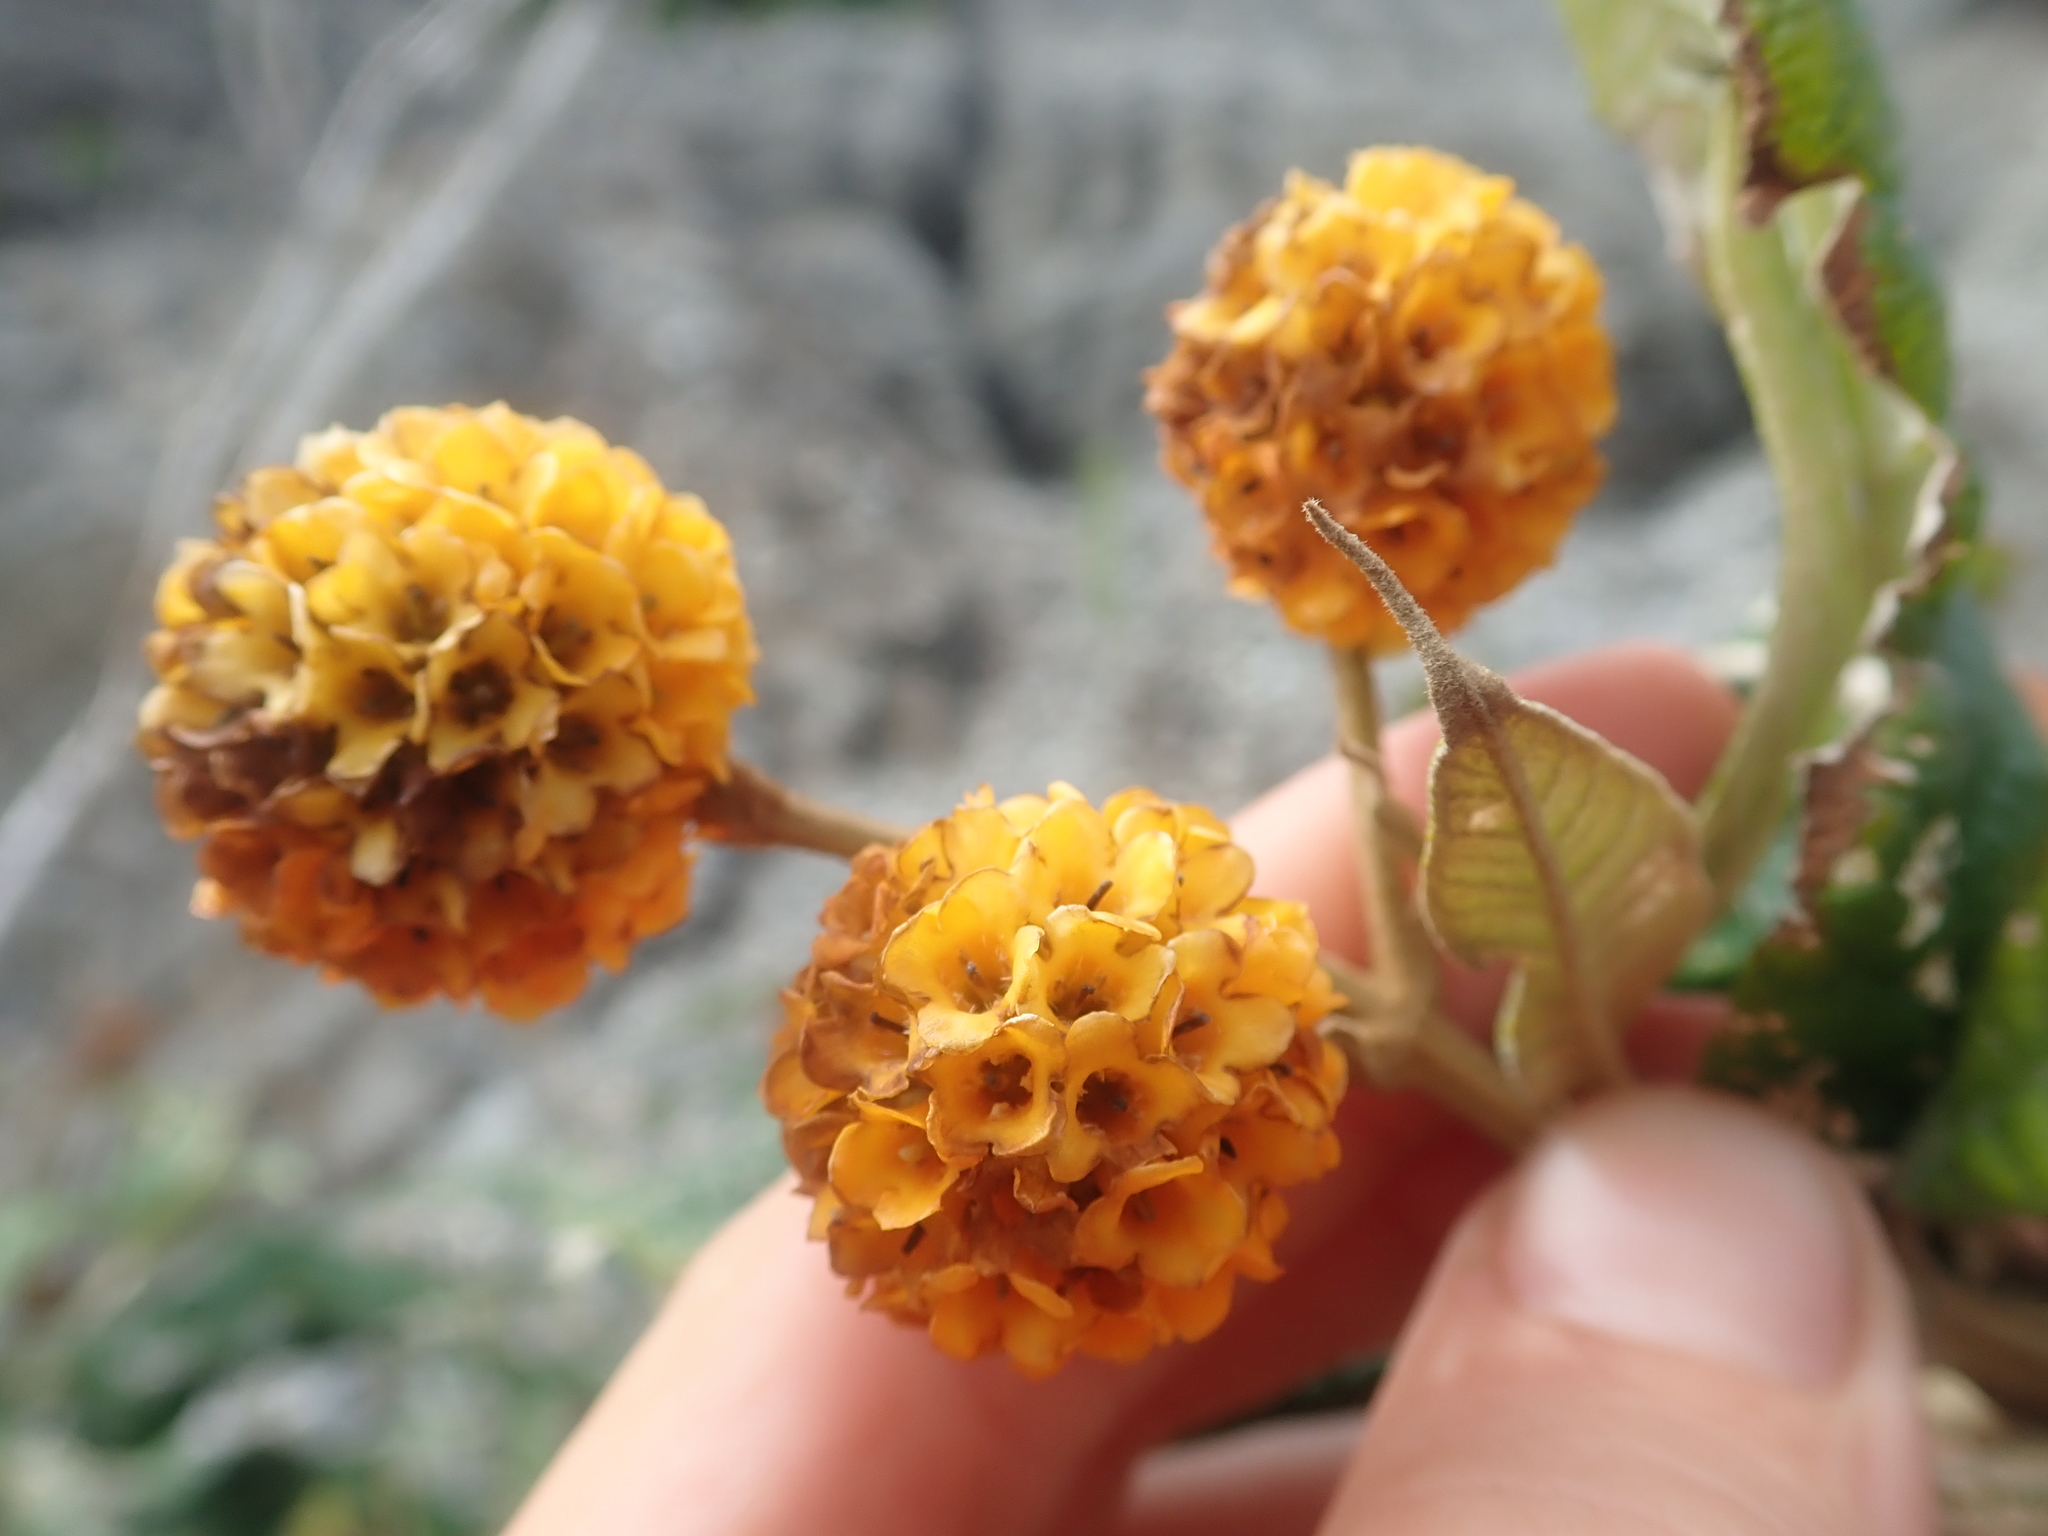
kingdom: Plantae
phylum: Tracheophyta
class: Magnoliopsida
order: Lamiales
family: Scrophulariaceae
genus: Buddleja
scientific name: Buddleja globosa
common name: Orange-ball-tree
